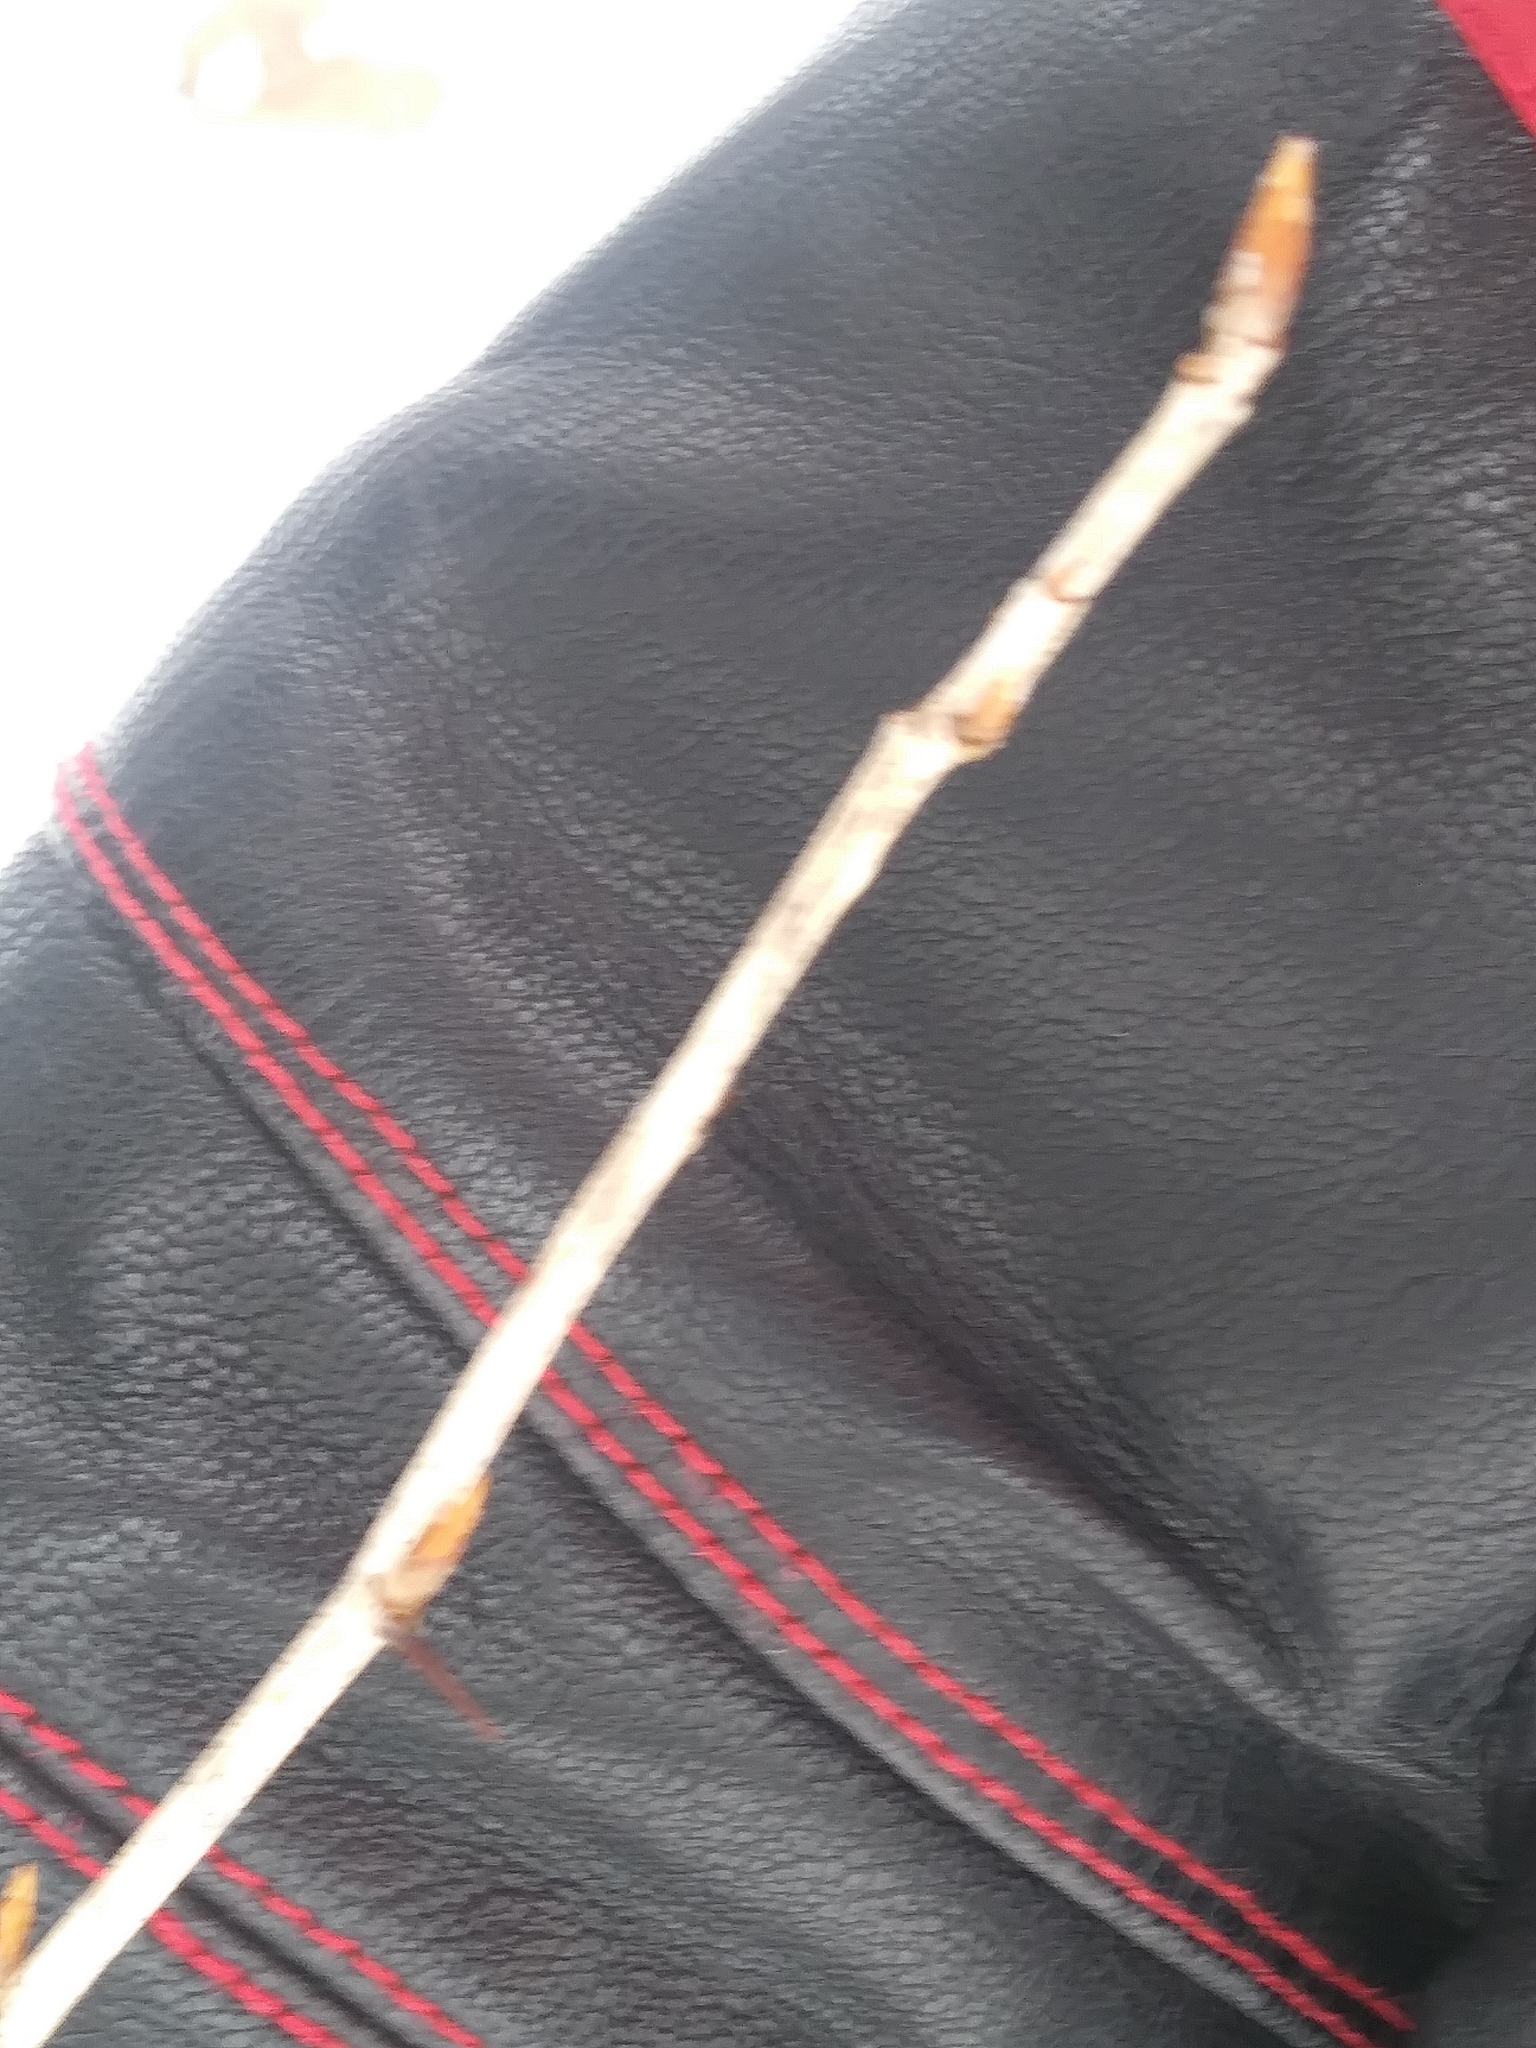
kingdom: Plantae
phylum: Tracheophyta
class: Magnoliopsida
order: Celastrales
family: Celastraceae
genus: Euonymus
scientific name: Euonymus alatus
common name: Winged euonymus
